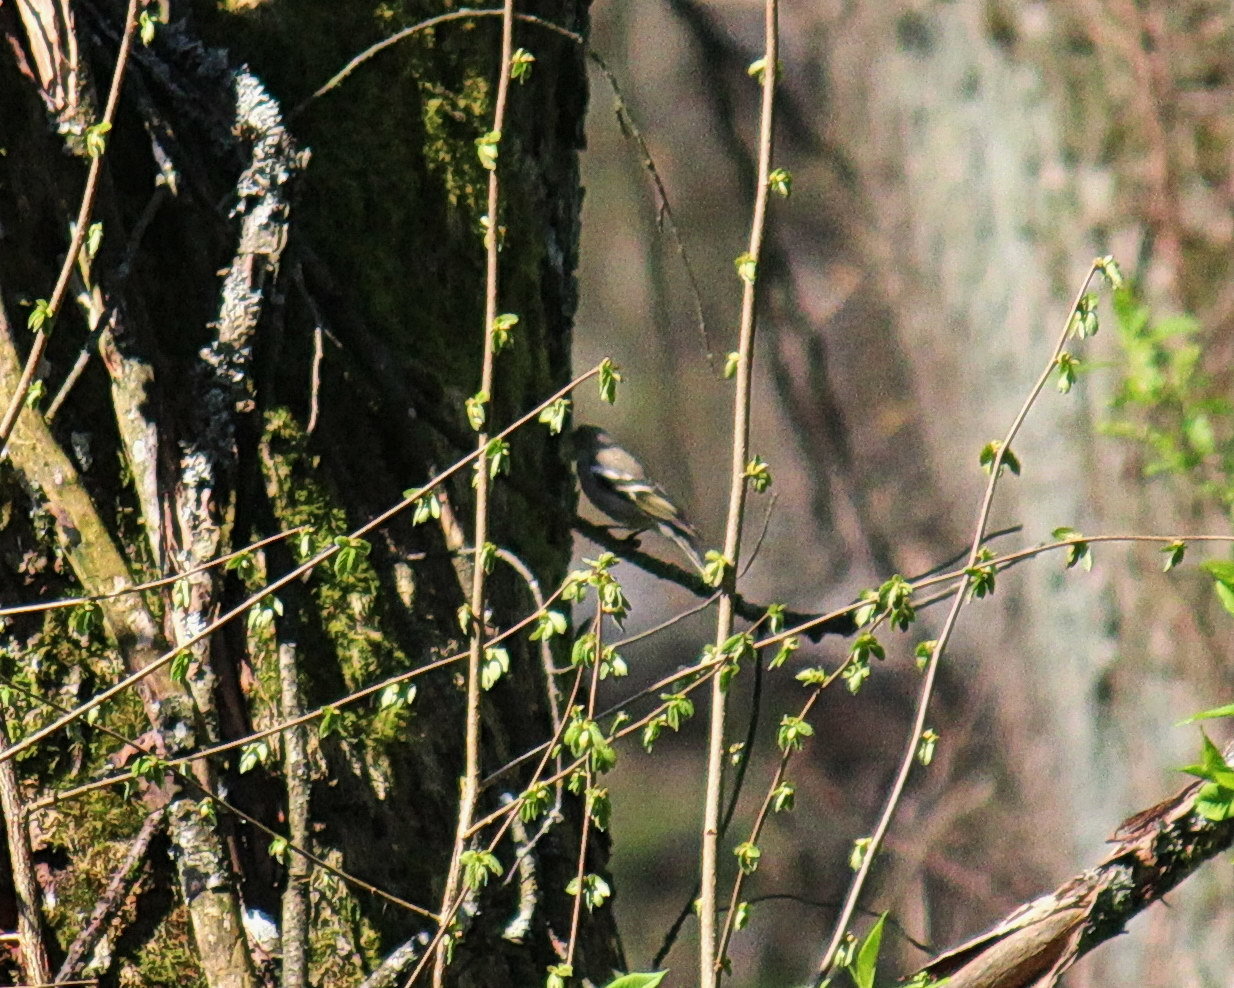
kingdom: Animalia
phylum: Chordata
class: Aves
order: Passeriformes
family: Fringillidae
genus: Fringilla
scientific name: Fringilla coelebs
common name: Common chaffinch
